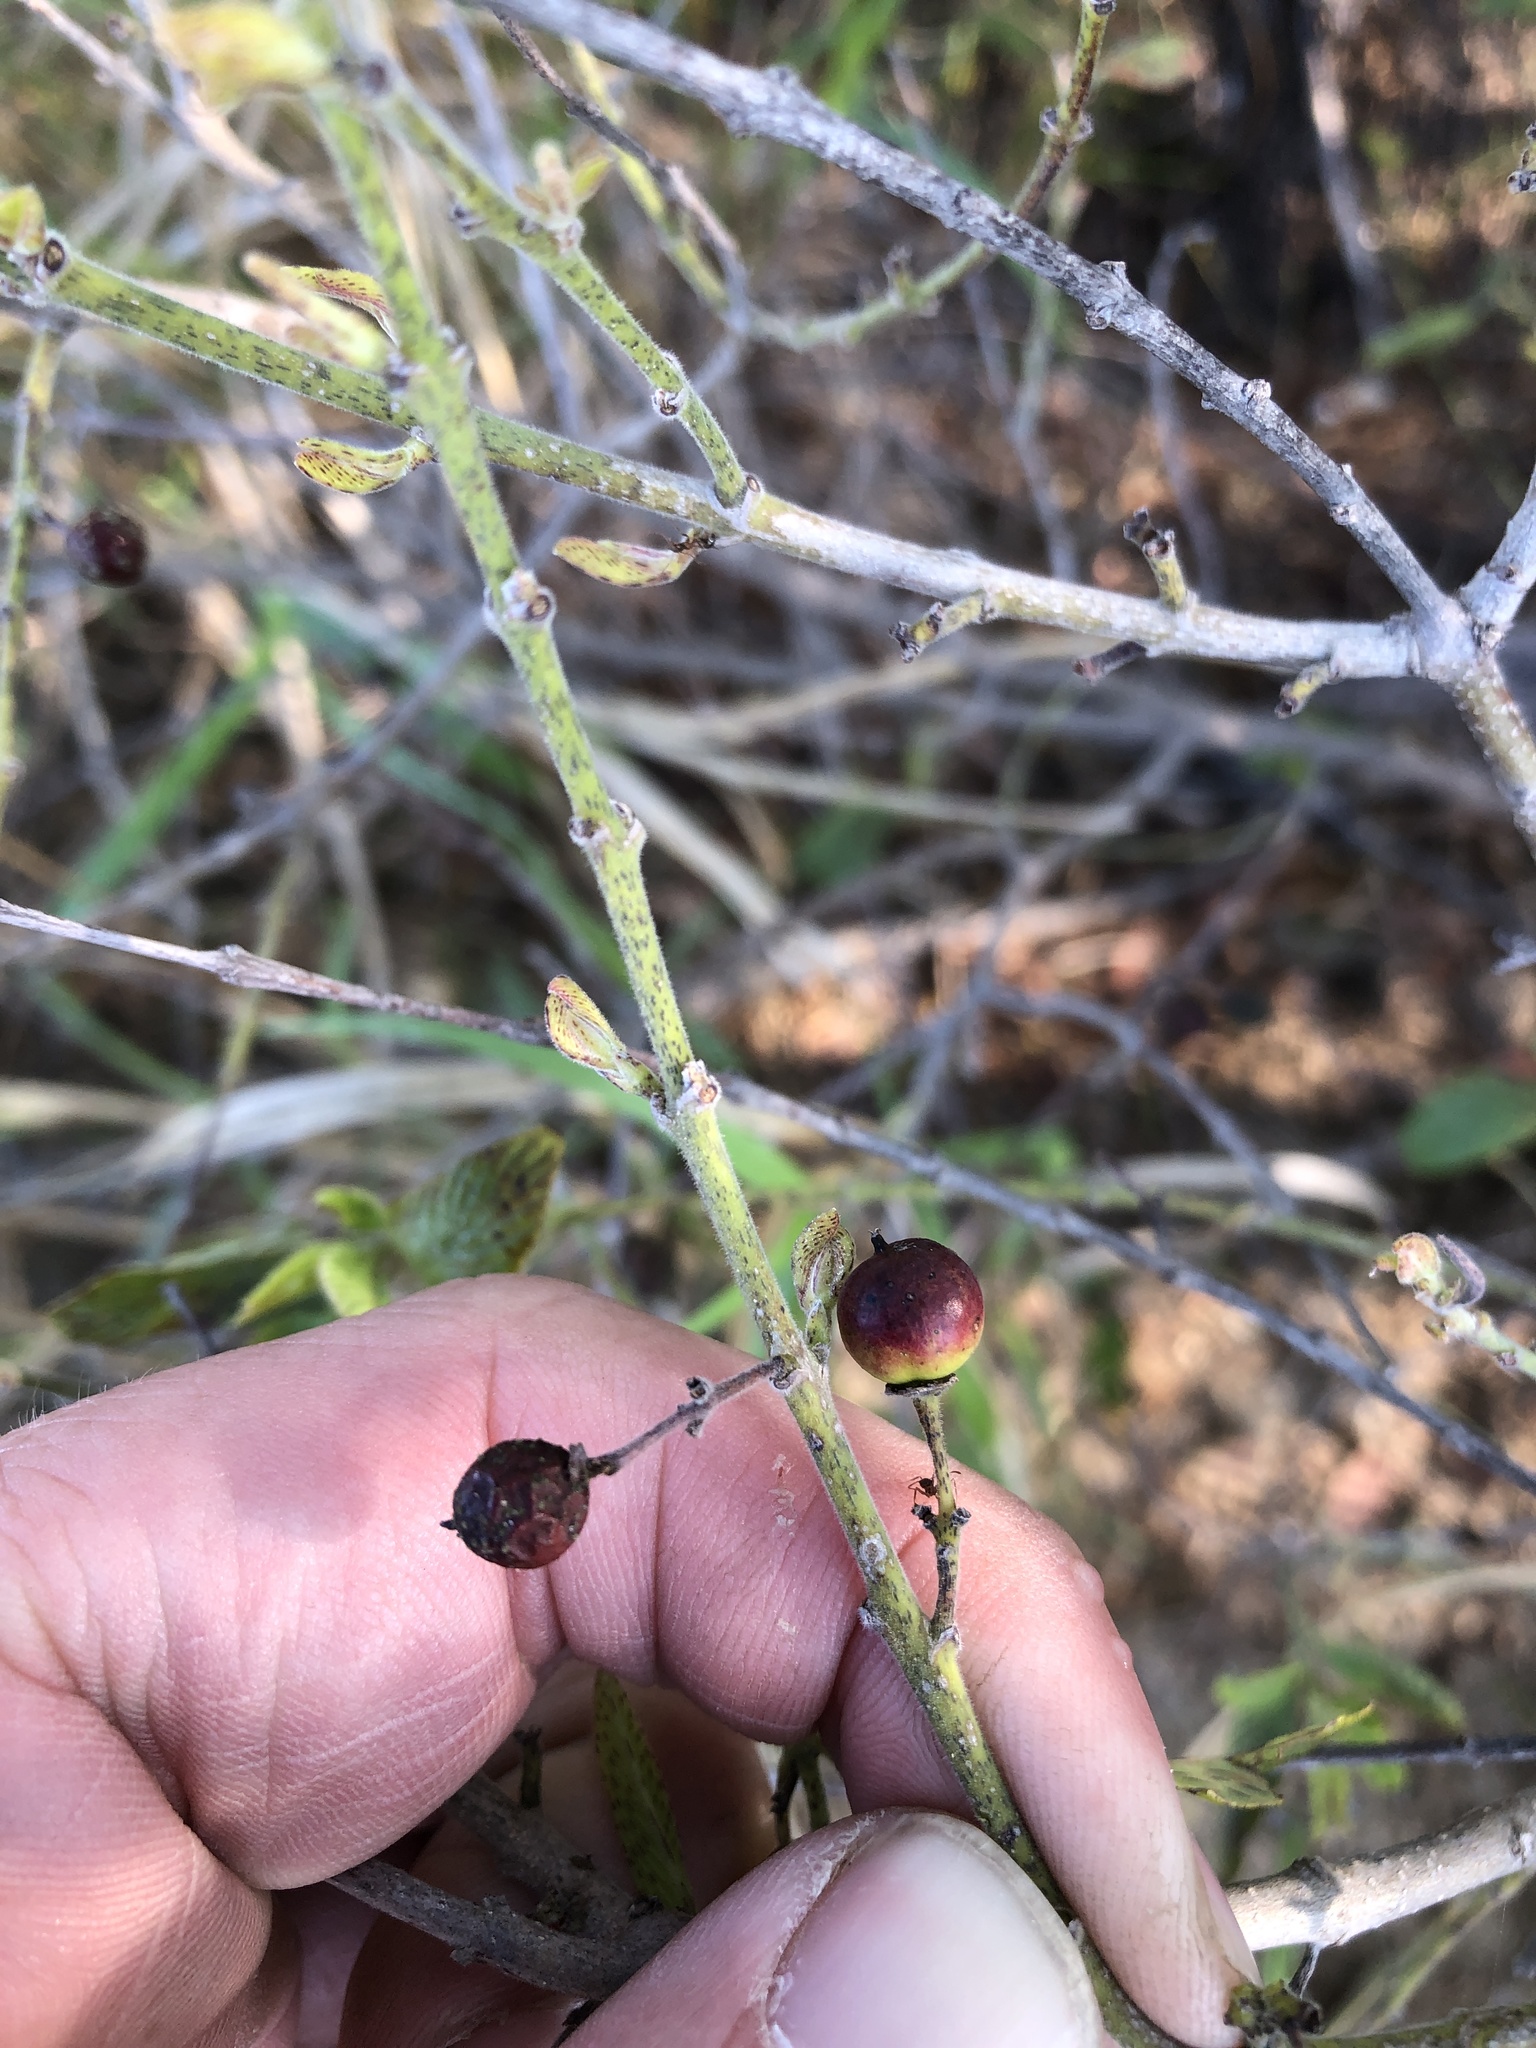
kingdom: Plantae
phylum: Tracheophyta
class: Magnoliopsida
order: Rosales
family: Rhamnaceae
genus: Karwinskia
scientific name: Karwinskia humboldtiana
